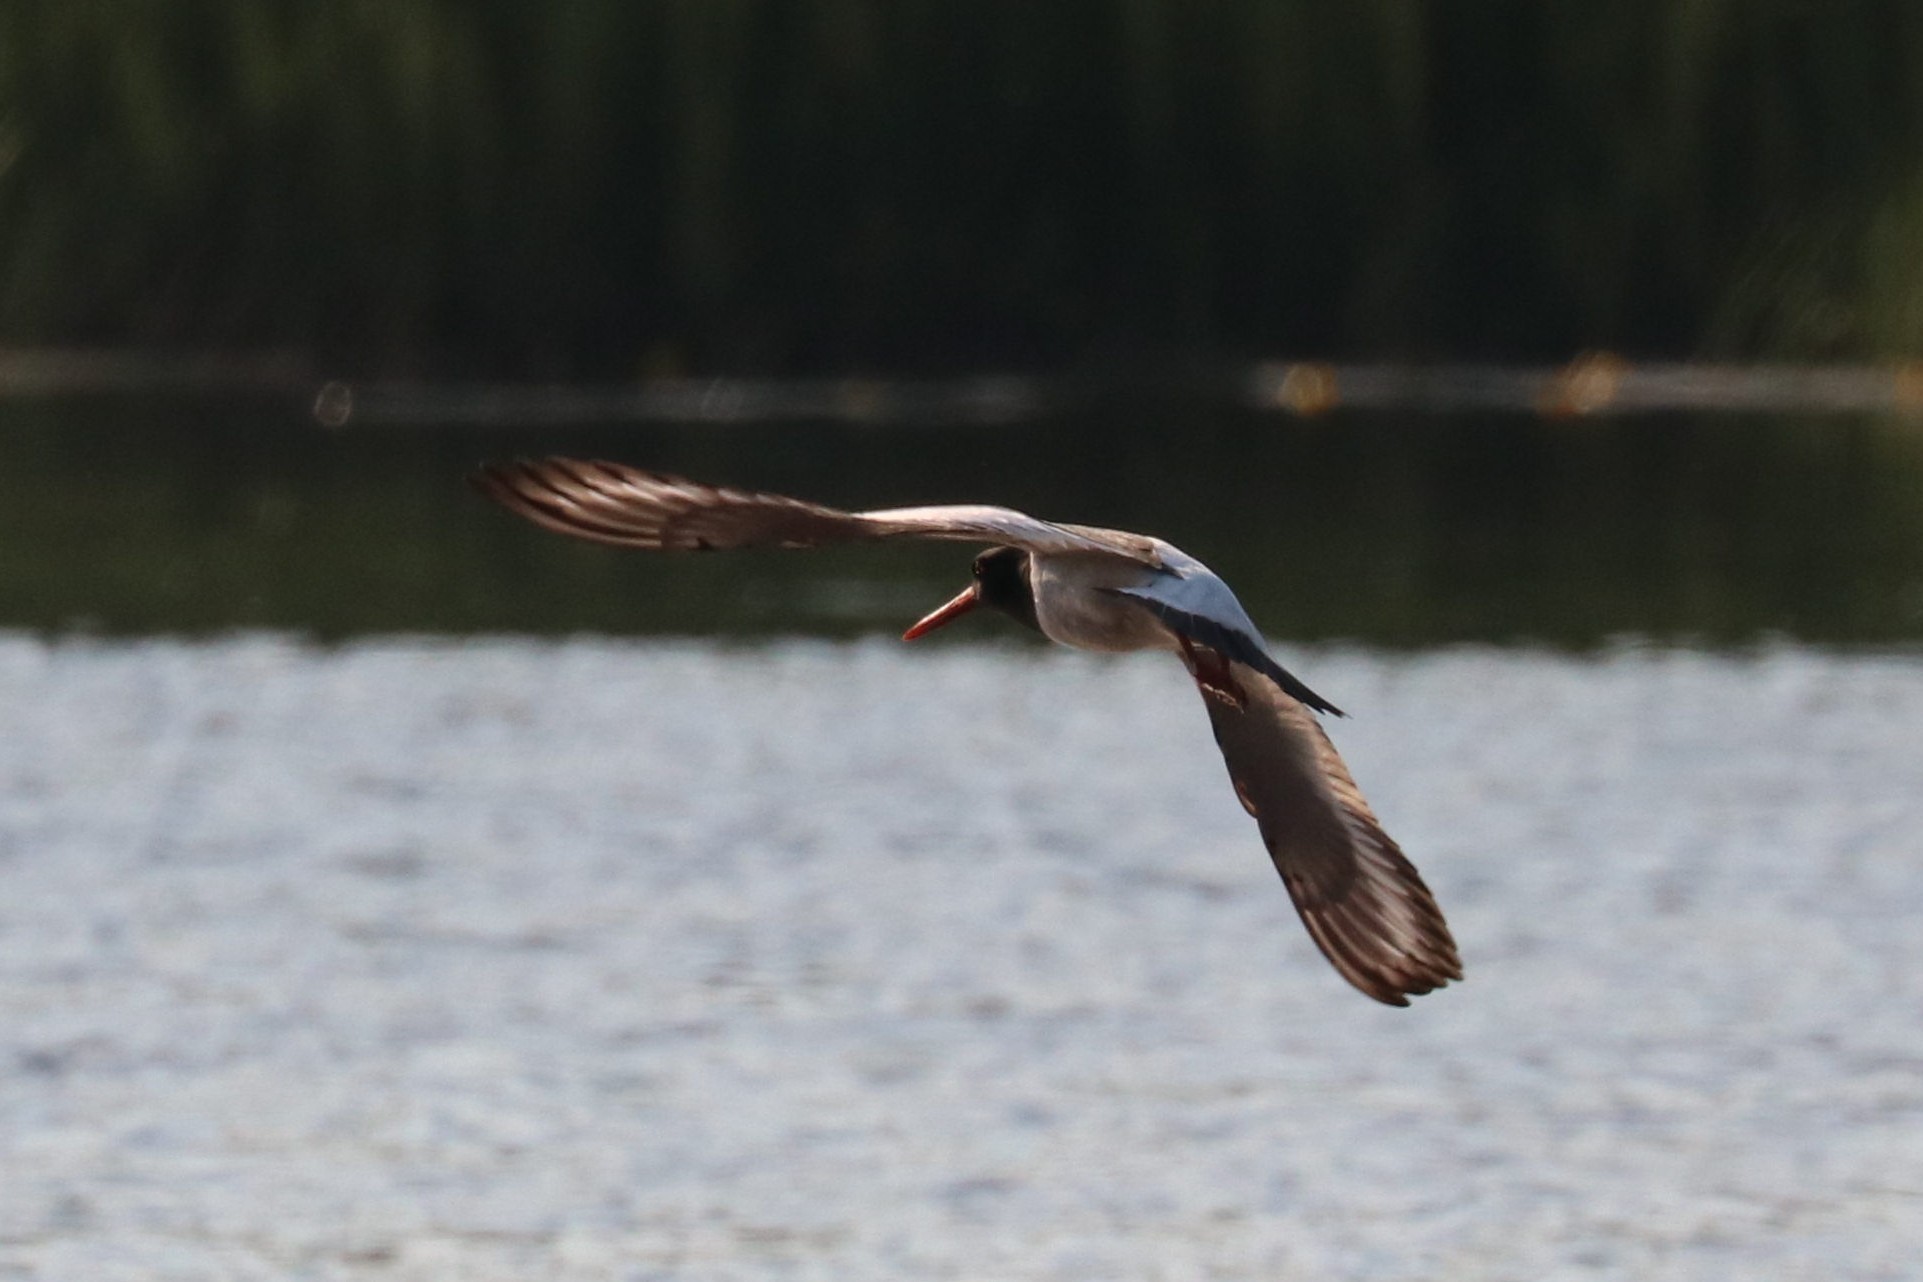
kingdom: Animalia
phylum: Chordata
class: Aves
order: Charadriiformes
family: Haematopodidae
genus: Haematopus
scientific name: Haematopus ostralegus
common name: Eurasian oystercatcher
